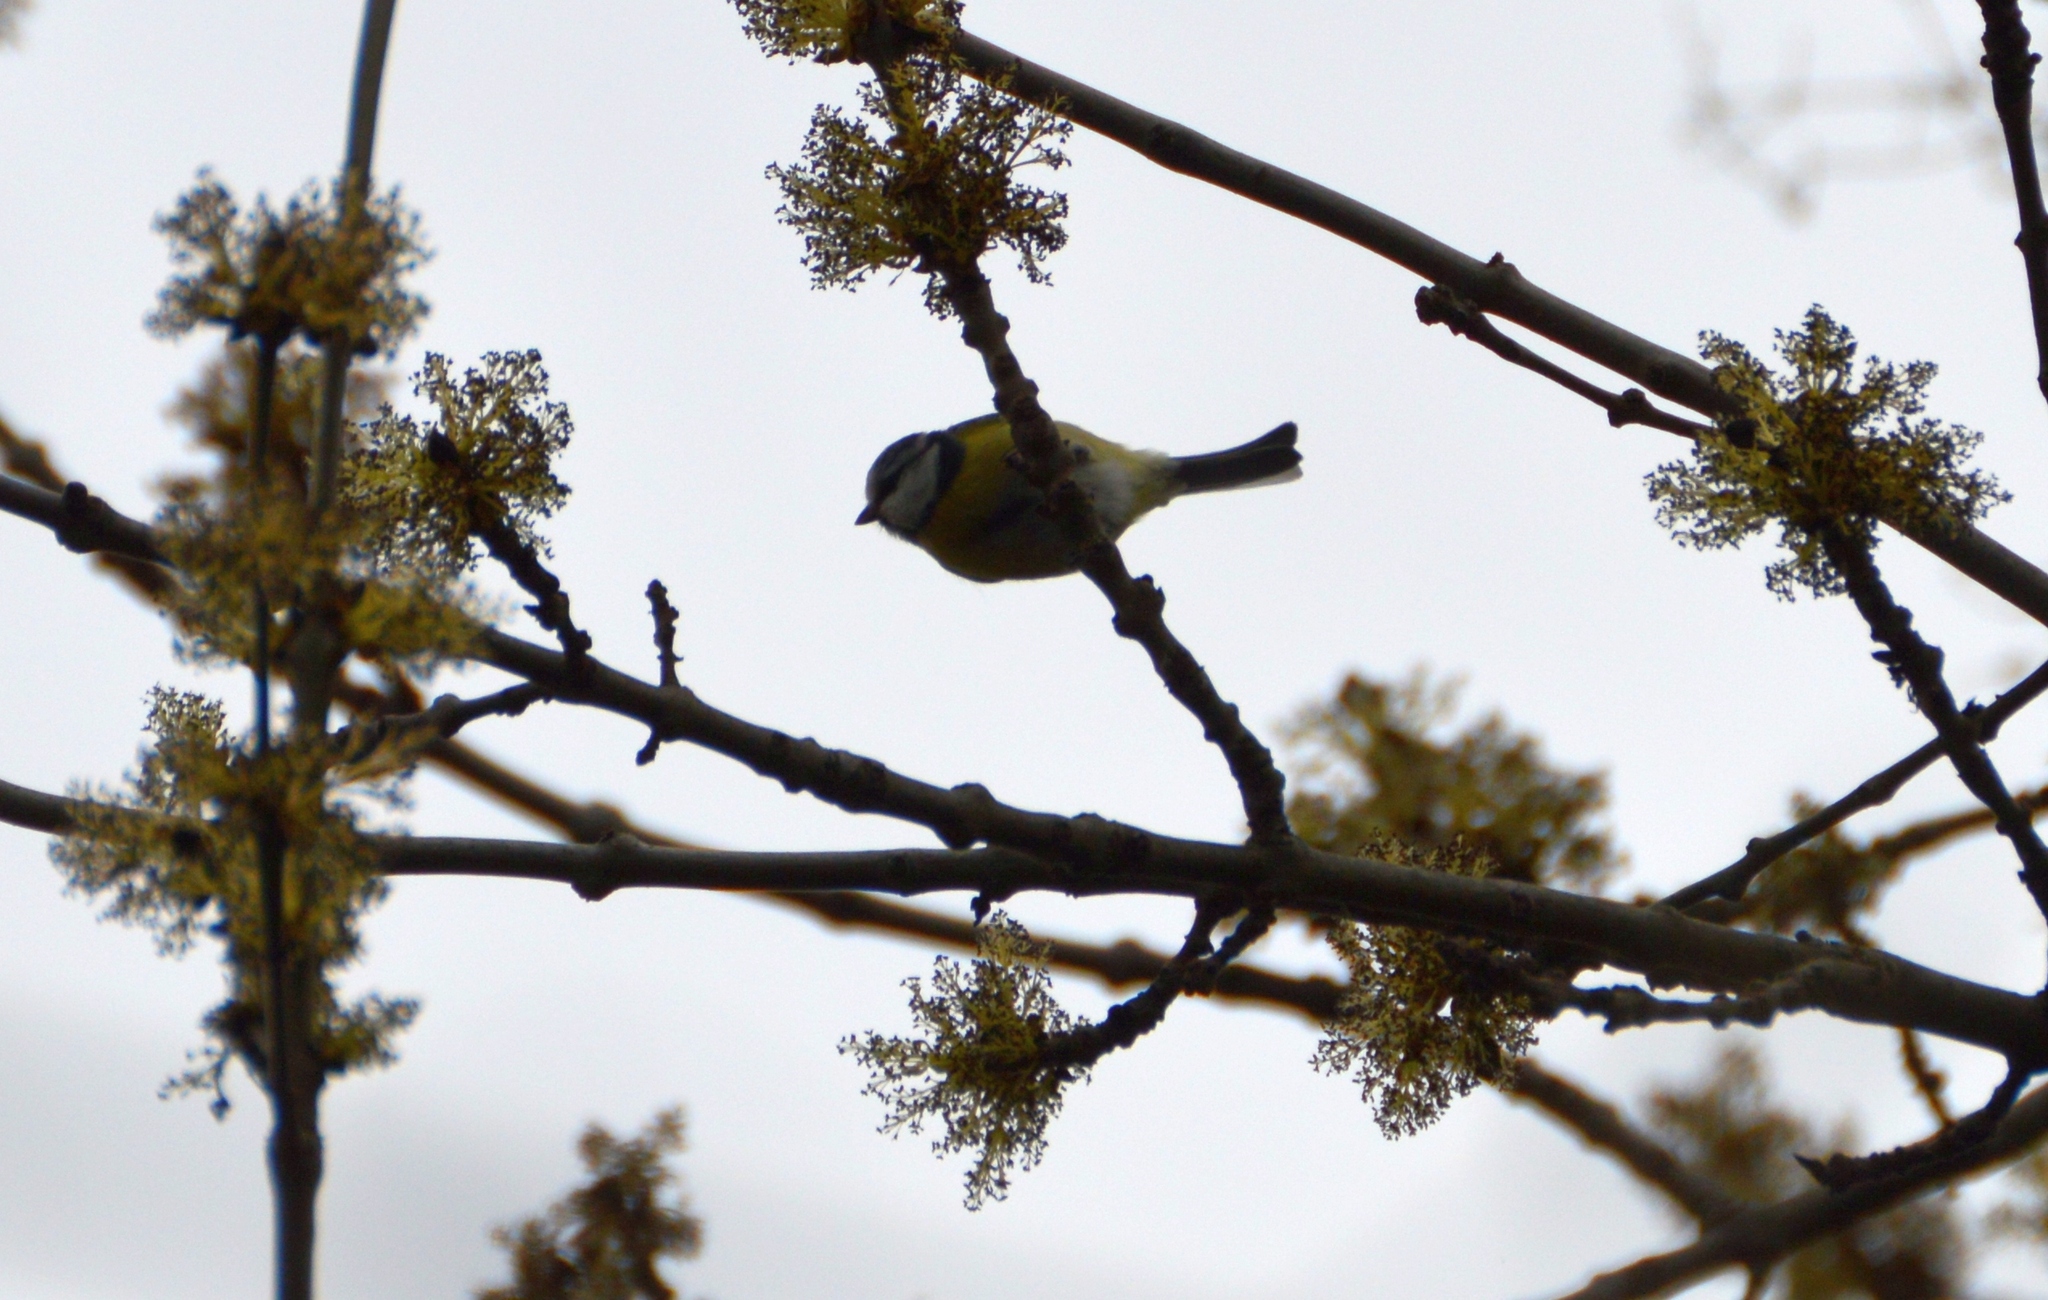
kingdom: Animalia
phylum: Chordata
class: Aves
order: Passeriformes
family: Paridae
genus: Cyanistes
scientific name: Cyanistes caeruleus
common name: Eurasian blue tit
